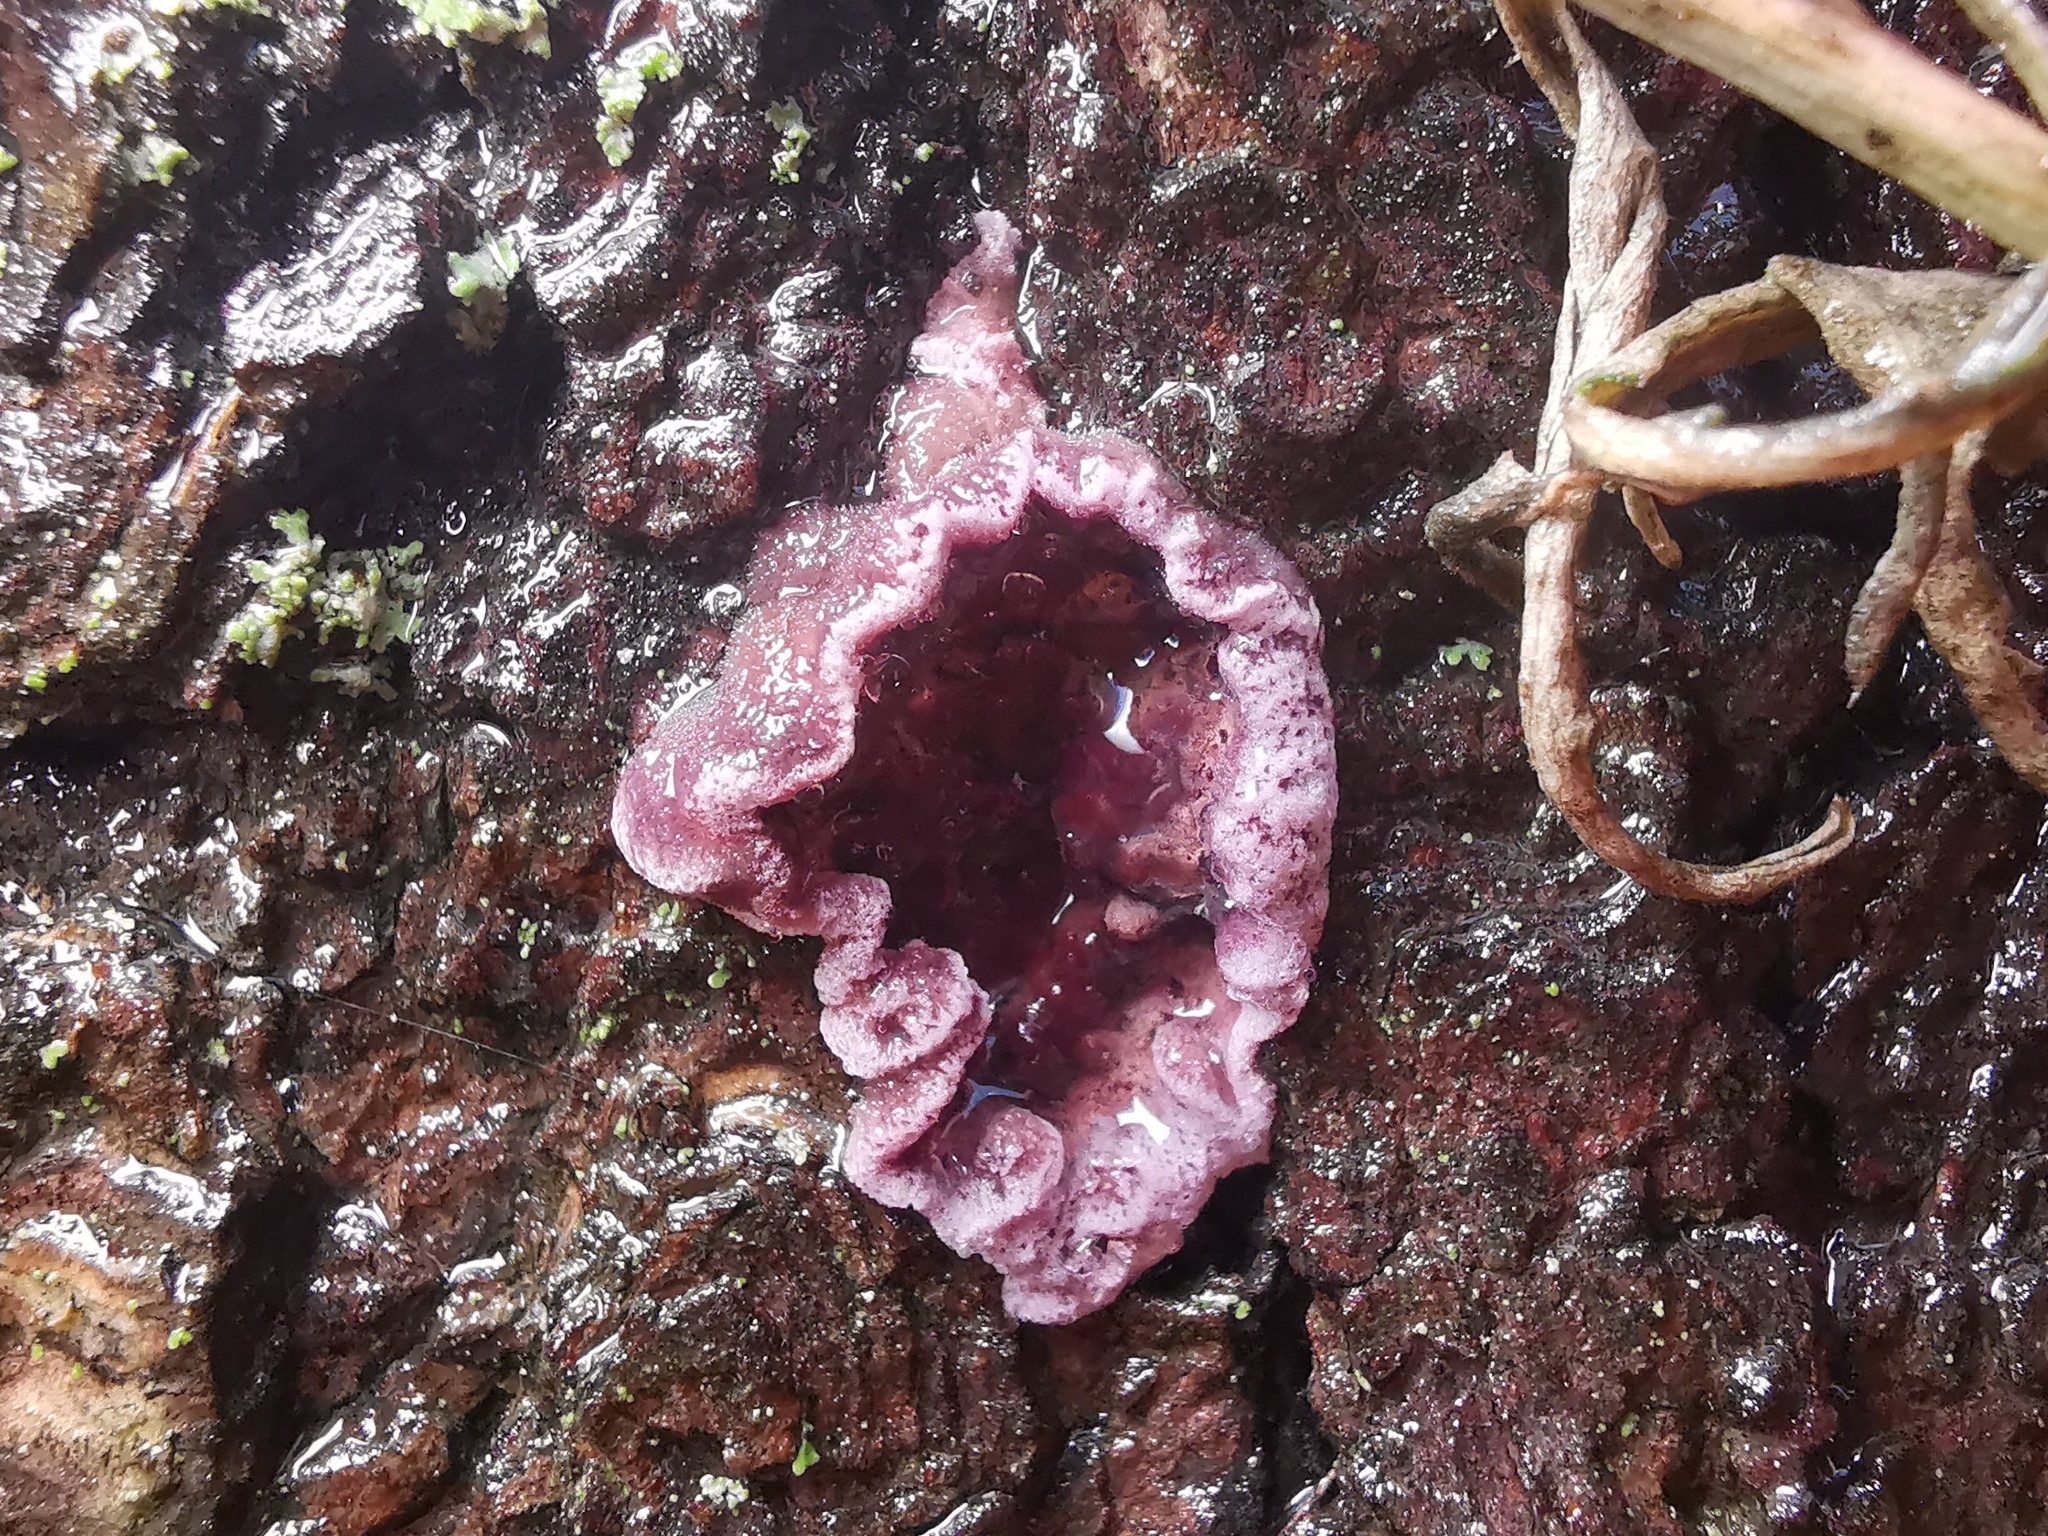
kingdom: Fungi
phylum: Basidiomycota
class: Agaricomycetes
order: Agaricales
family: Cyphellaceae
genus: Chondrostereum
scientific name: Chondrostereum purpureum
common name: Silver leaf disease
